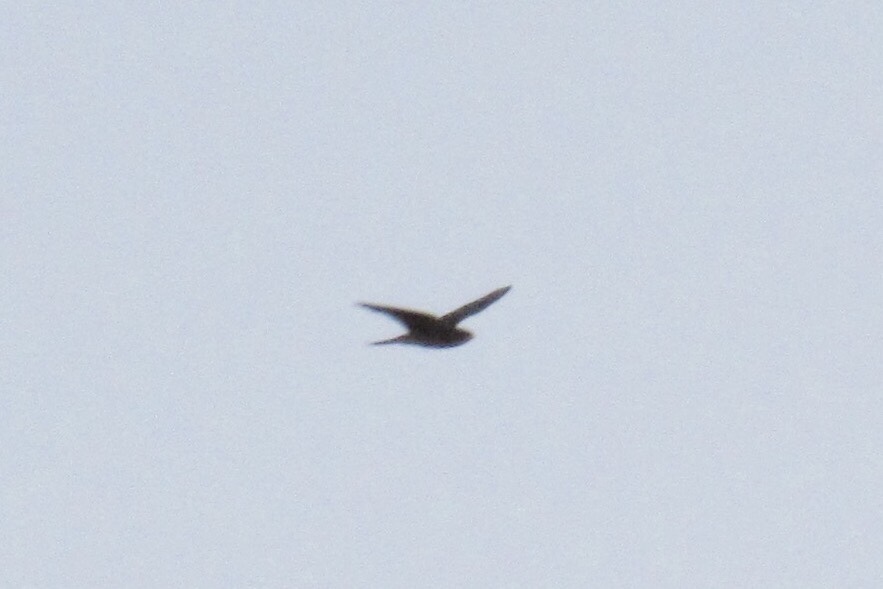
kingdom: Animalia
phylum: Chordata
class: Aves
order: Caprimulgiformes
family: Caprimulgidae
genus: Chordeiles
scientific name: Chordeiles acutipennis
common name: Lesser nighthawk
